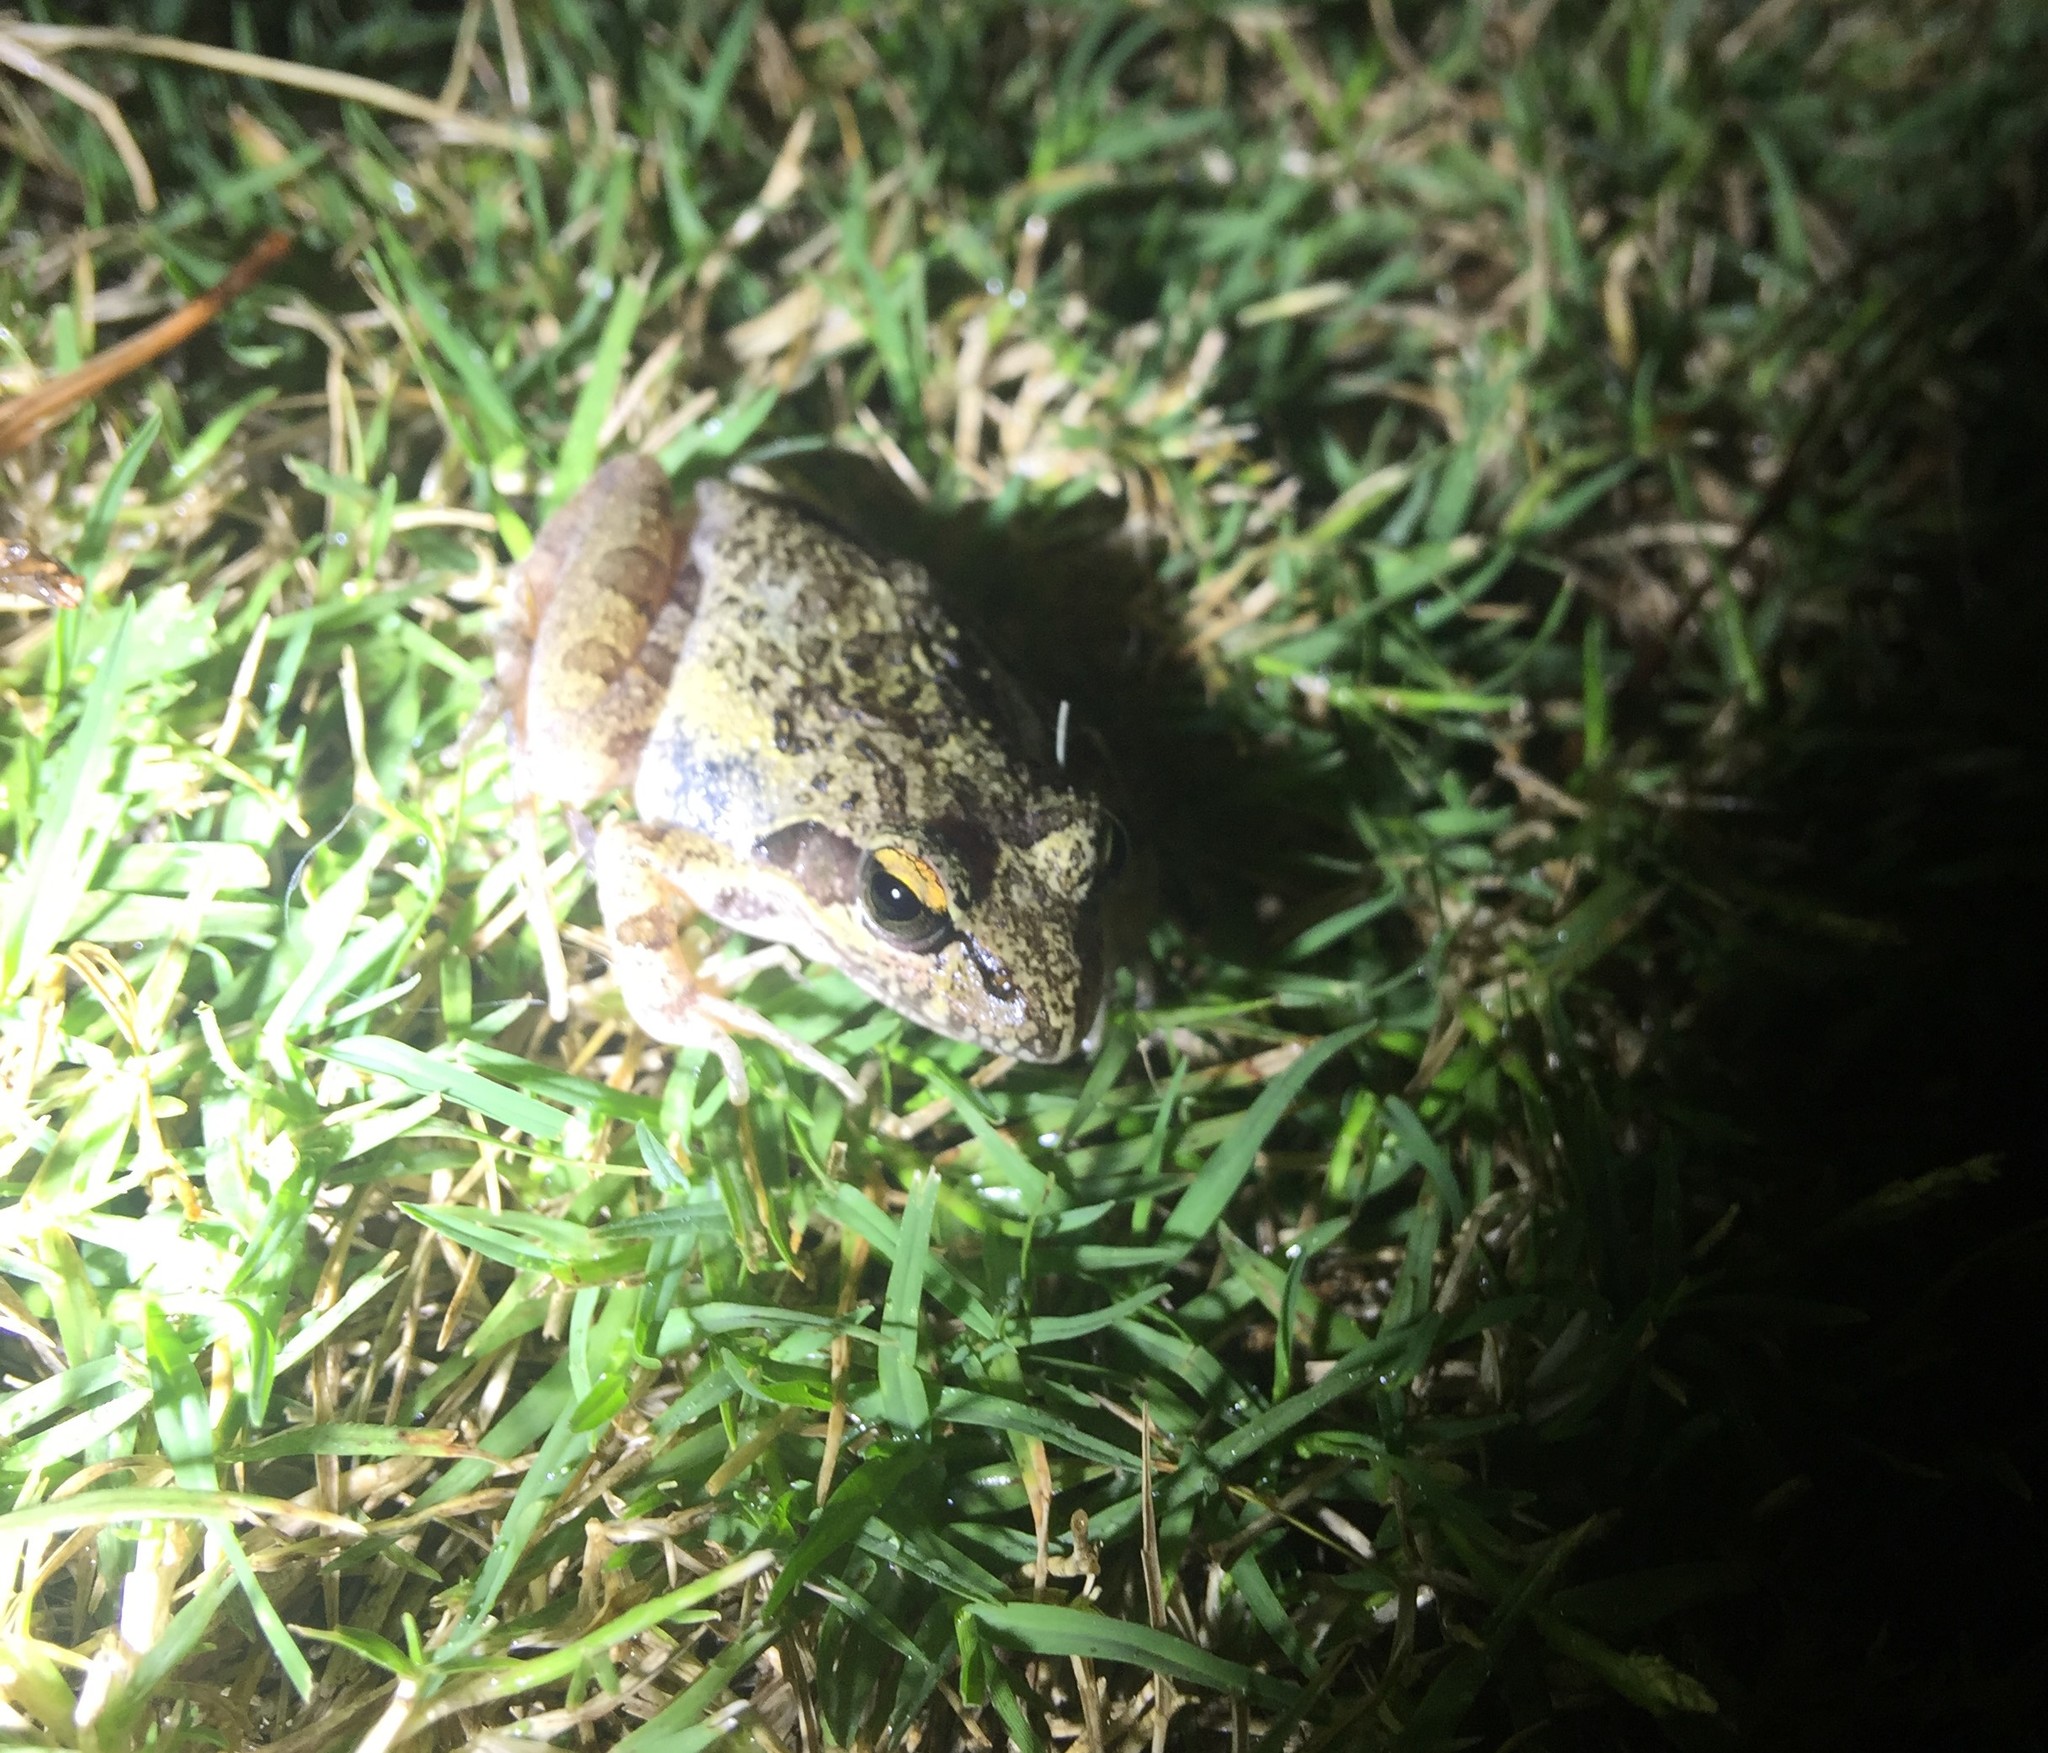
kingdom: Animalia
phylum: Chordata
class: Amphibia
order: Anura
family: Pyxicephalidae
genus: Strongylopus
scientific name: Strongylopus grayii
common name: Gray's stream frog
